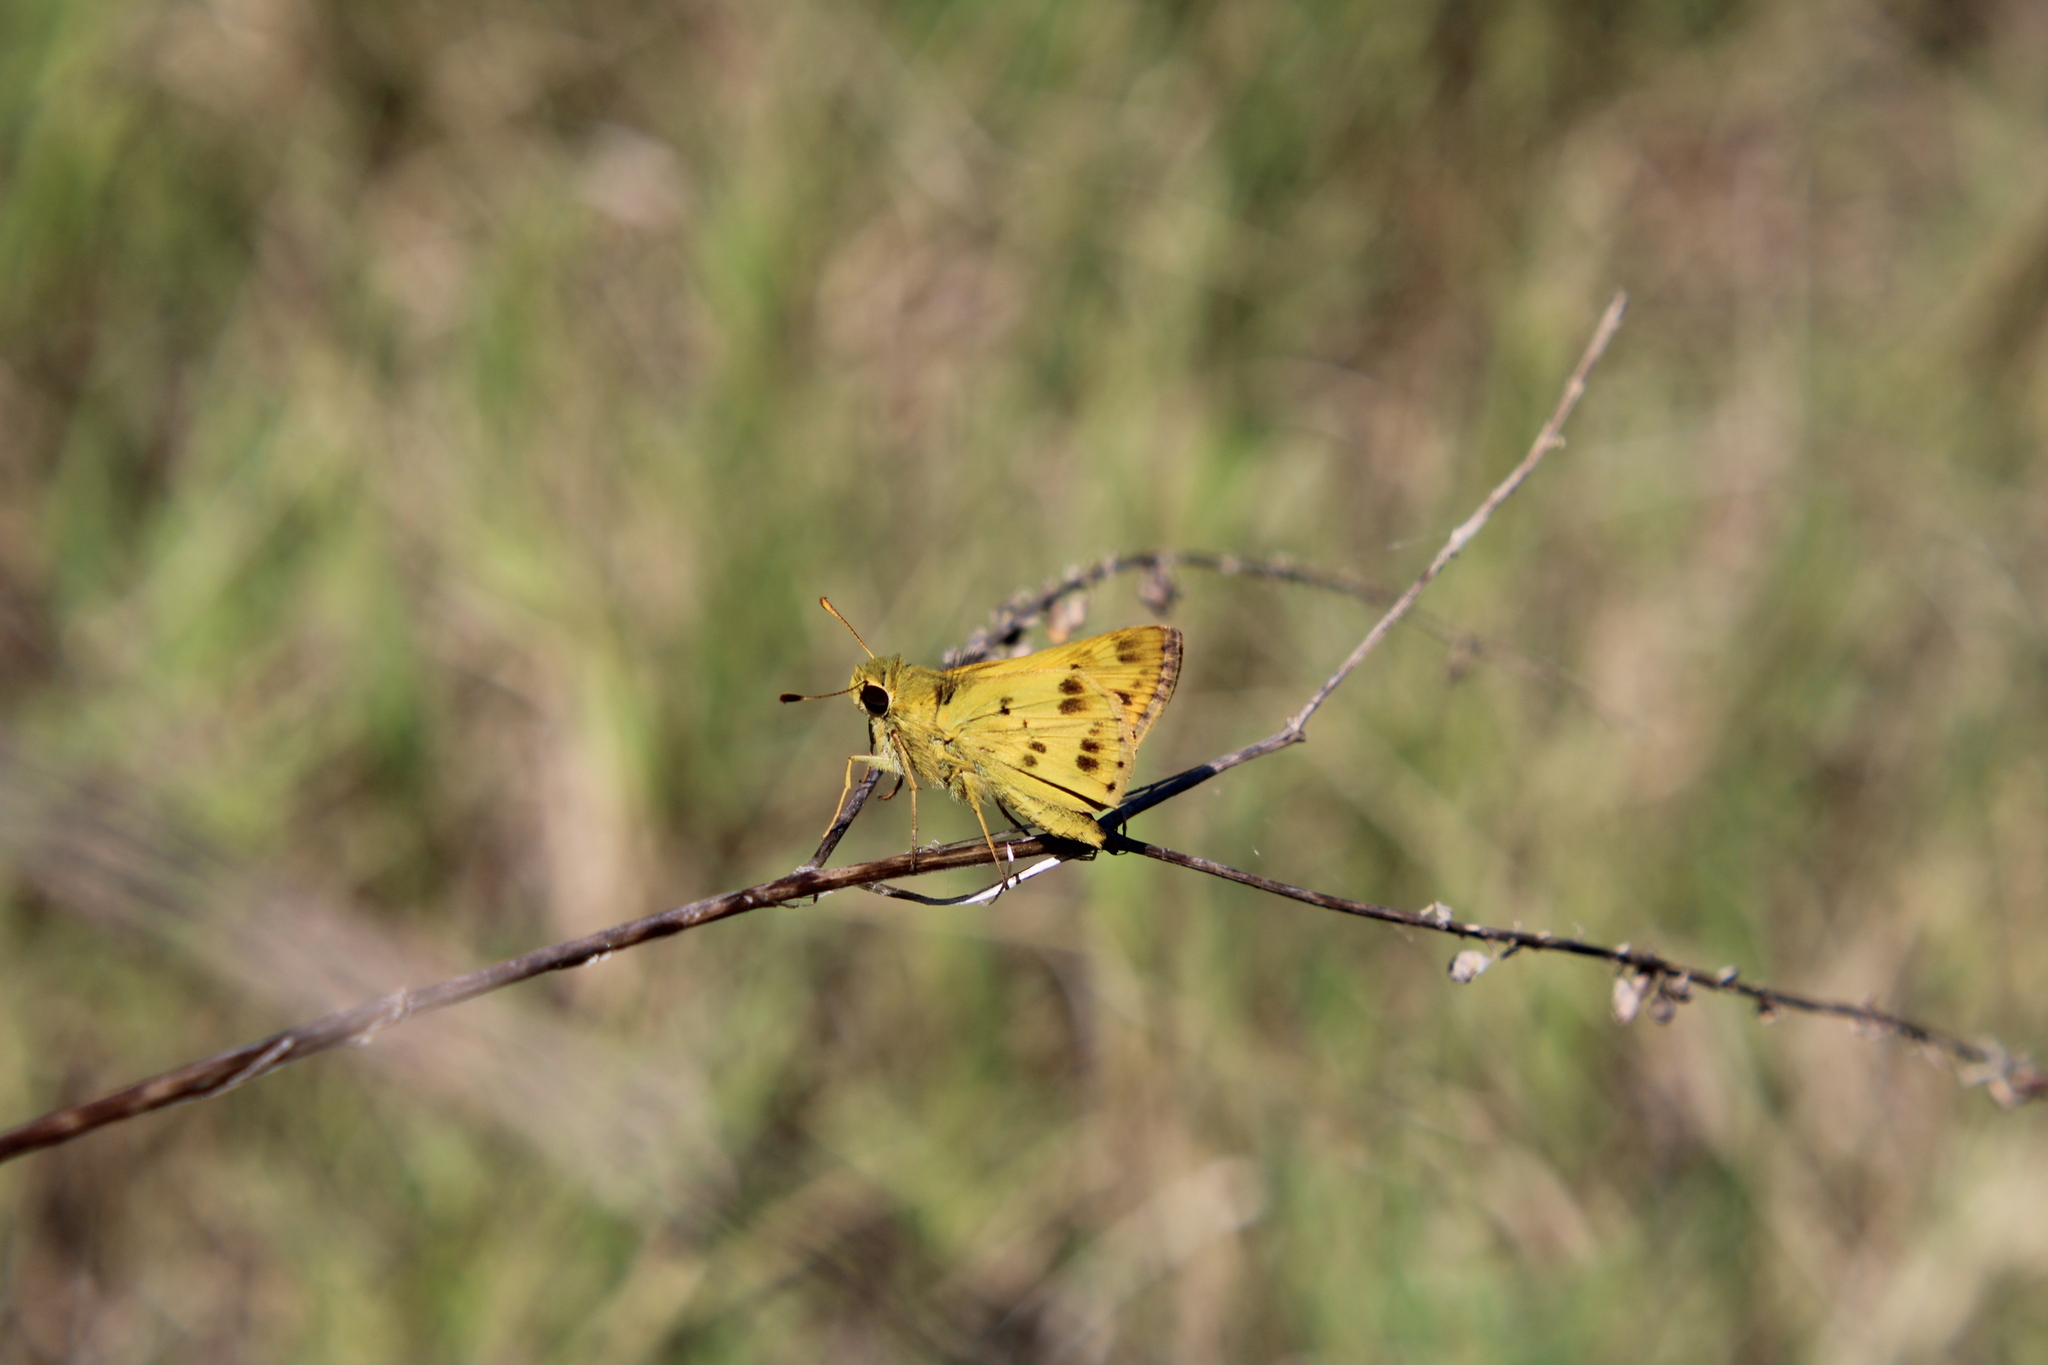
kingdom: Animalia
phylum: Arthropoda
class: Insecta
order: Lepidoptera
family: Hesperiidae
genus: Polites
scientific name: Polites vibex
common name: Whirlabout
